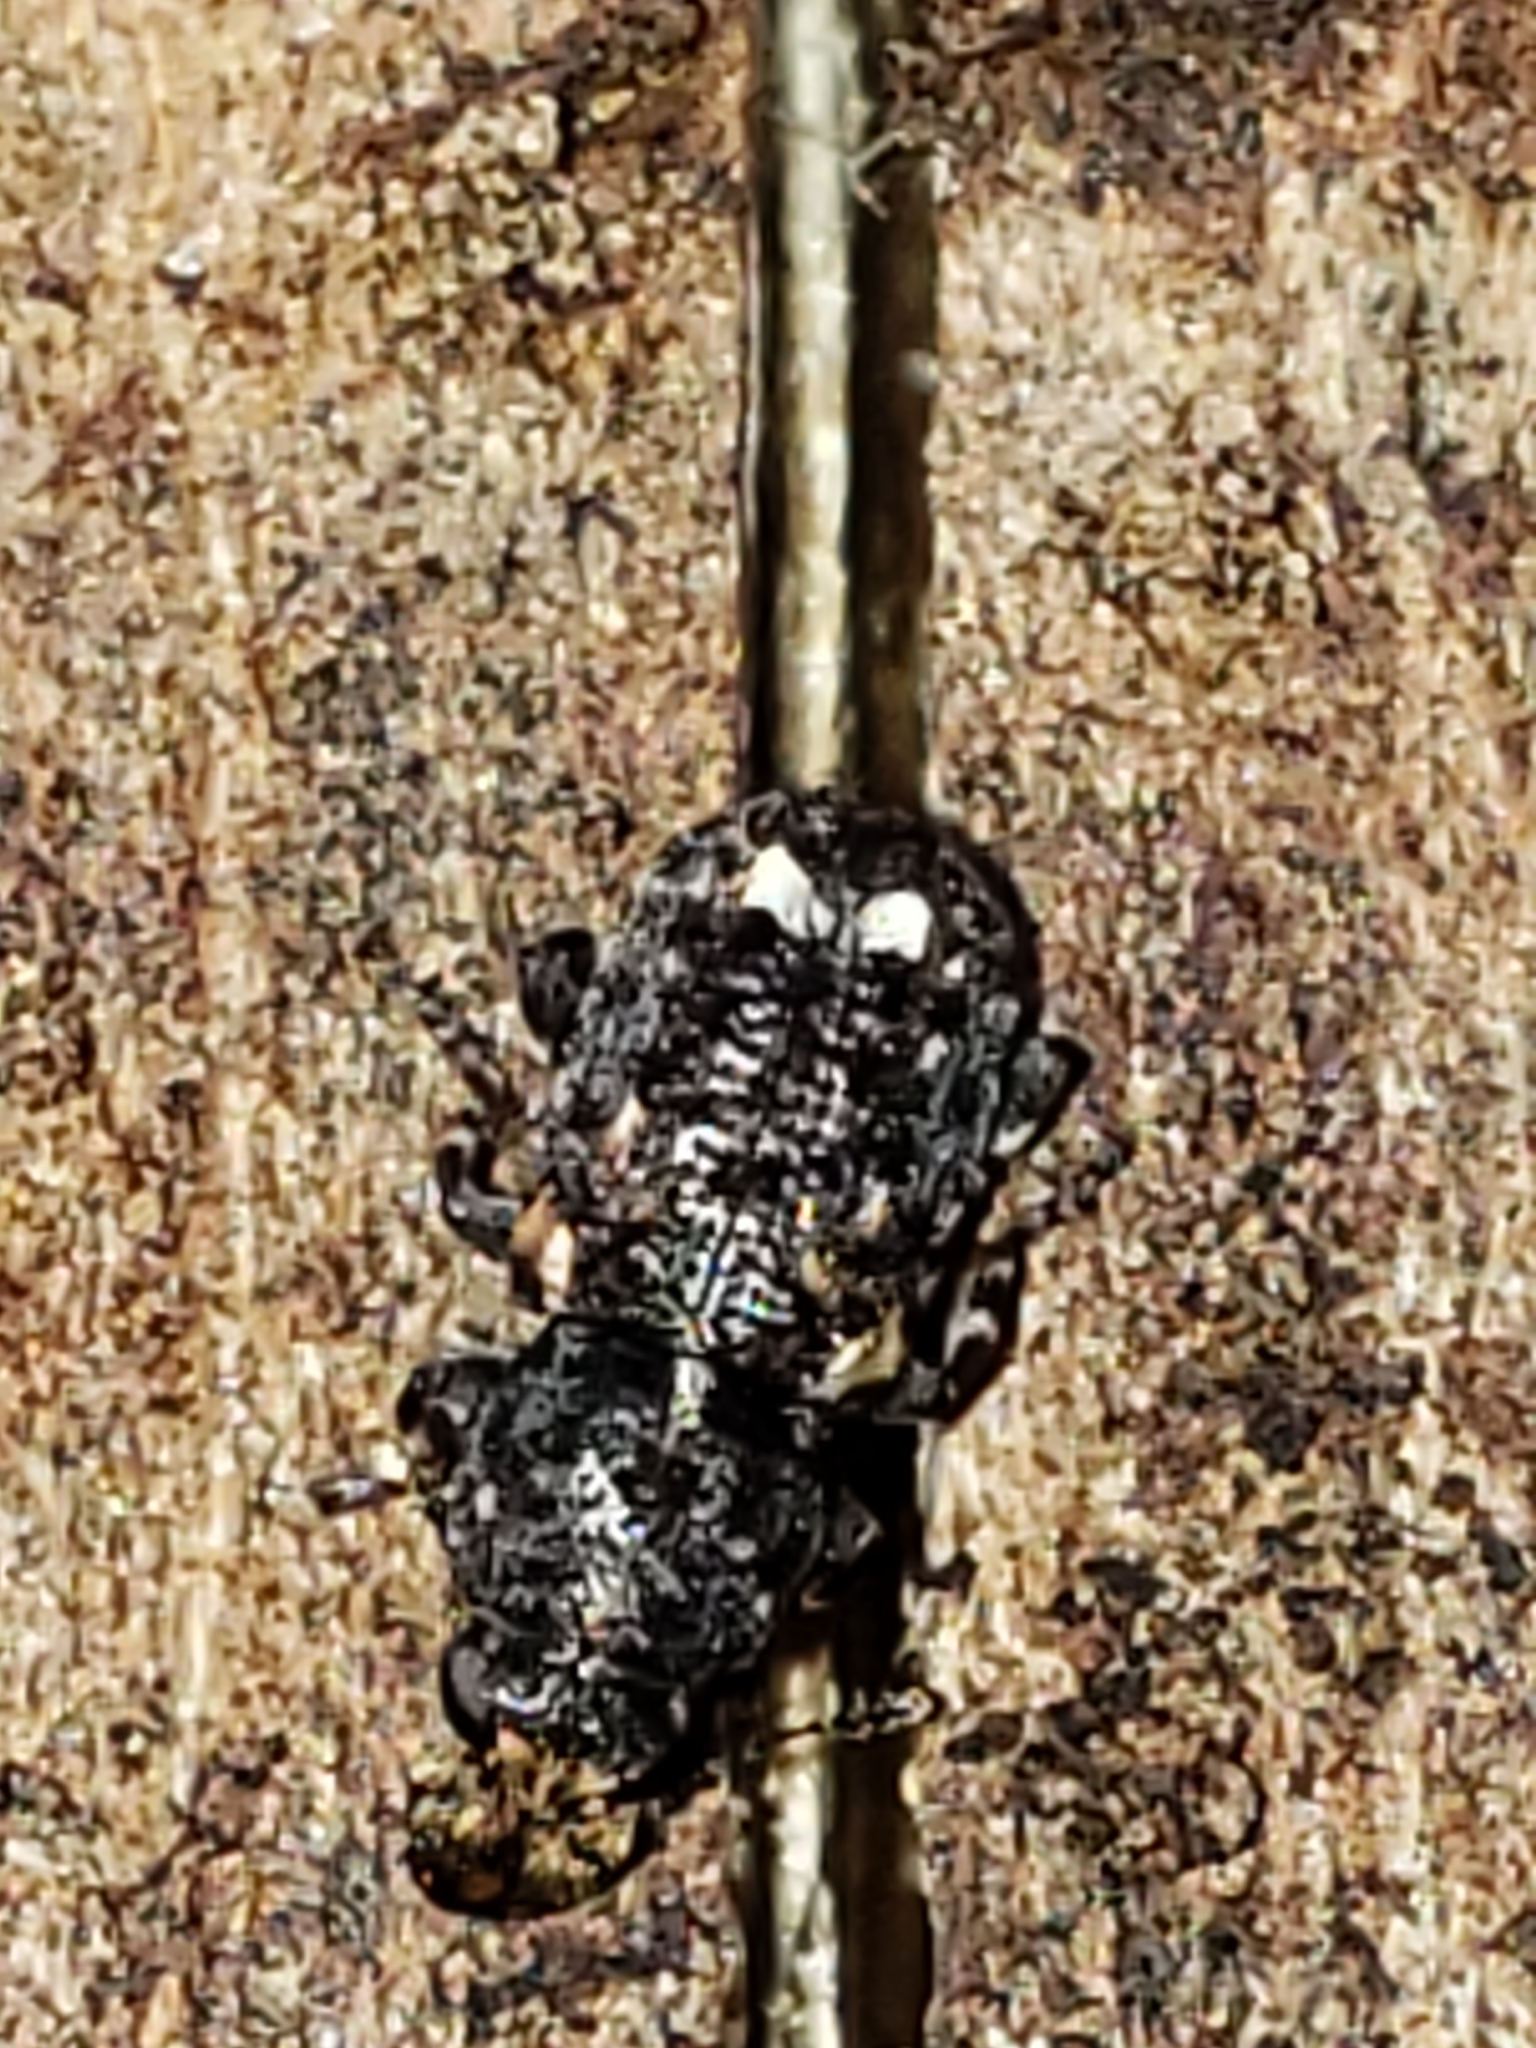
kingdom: Animalia
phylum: Arthropoda
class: Insecta
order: Coleoptera
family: Anthribidae
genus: Goniocloeus
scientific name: Goniocloeus bimaculatus
